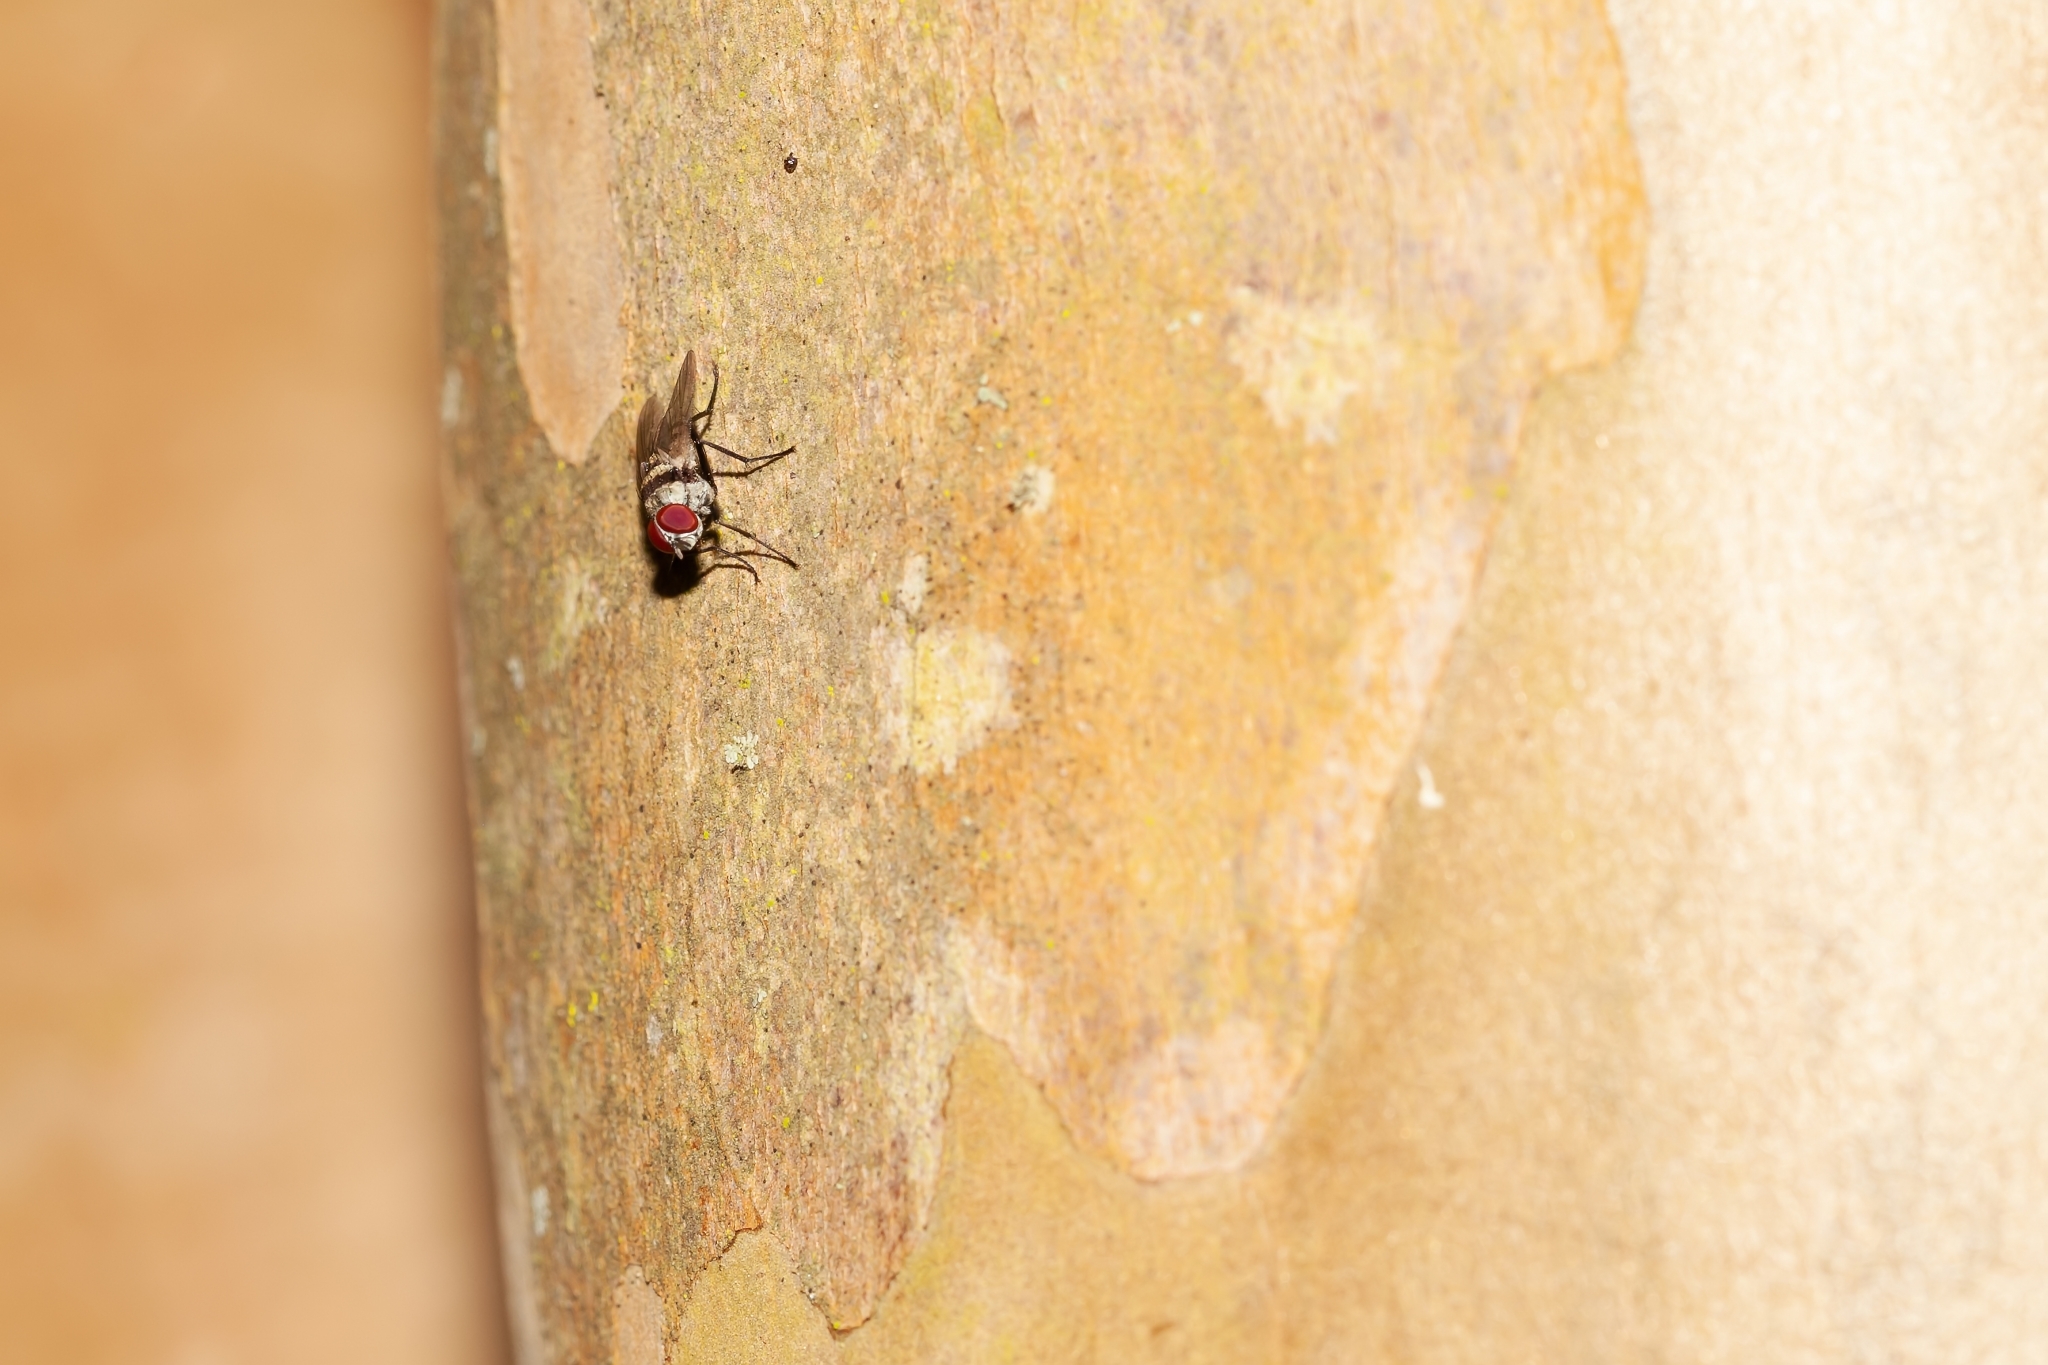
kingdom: Animalia
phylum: Arthropoda
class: Insecta
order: Diptera
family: Anthomyiidae
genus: Anthomyia
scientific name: Anthomyia illocata
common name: Fly
